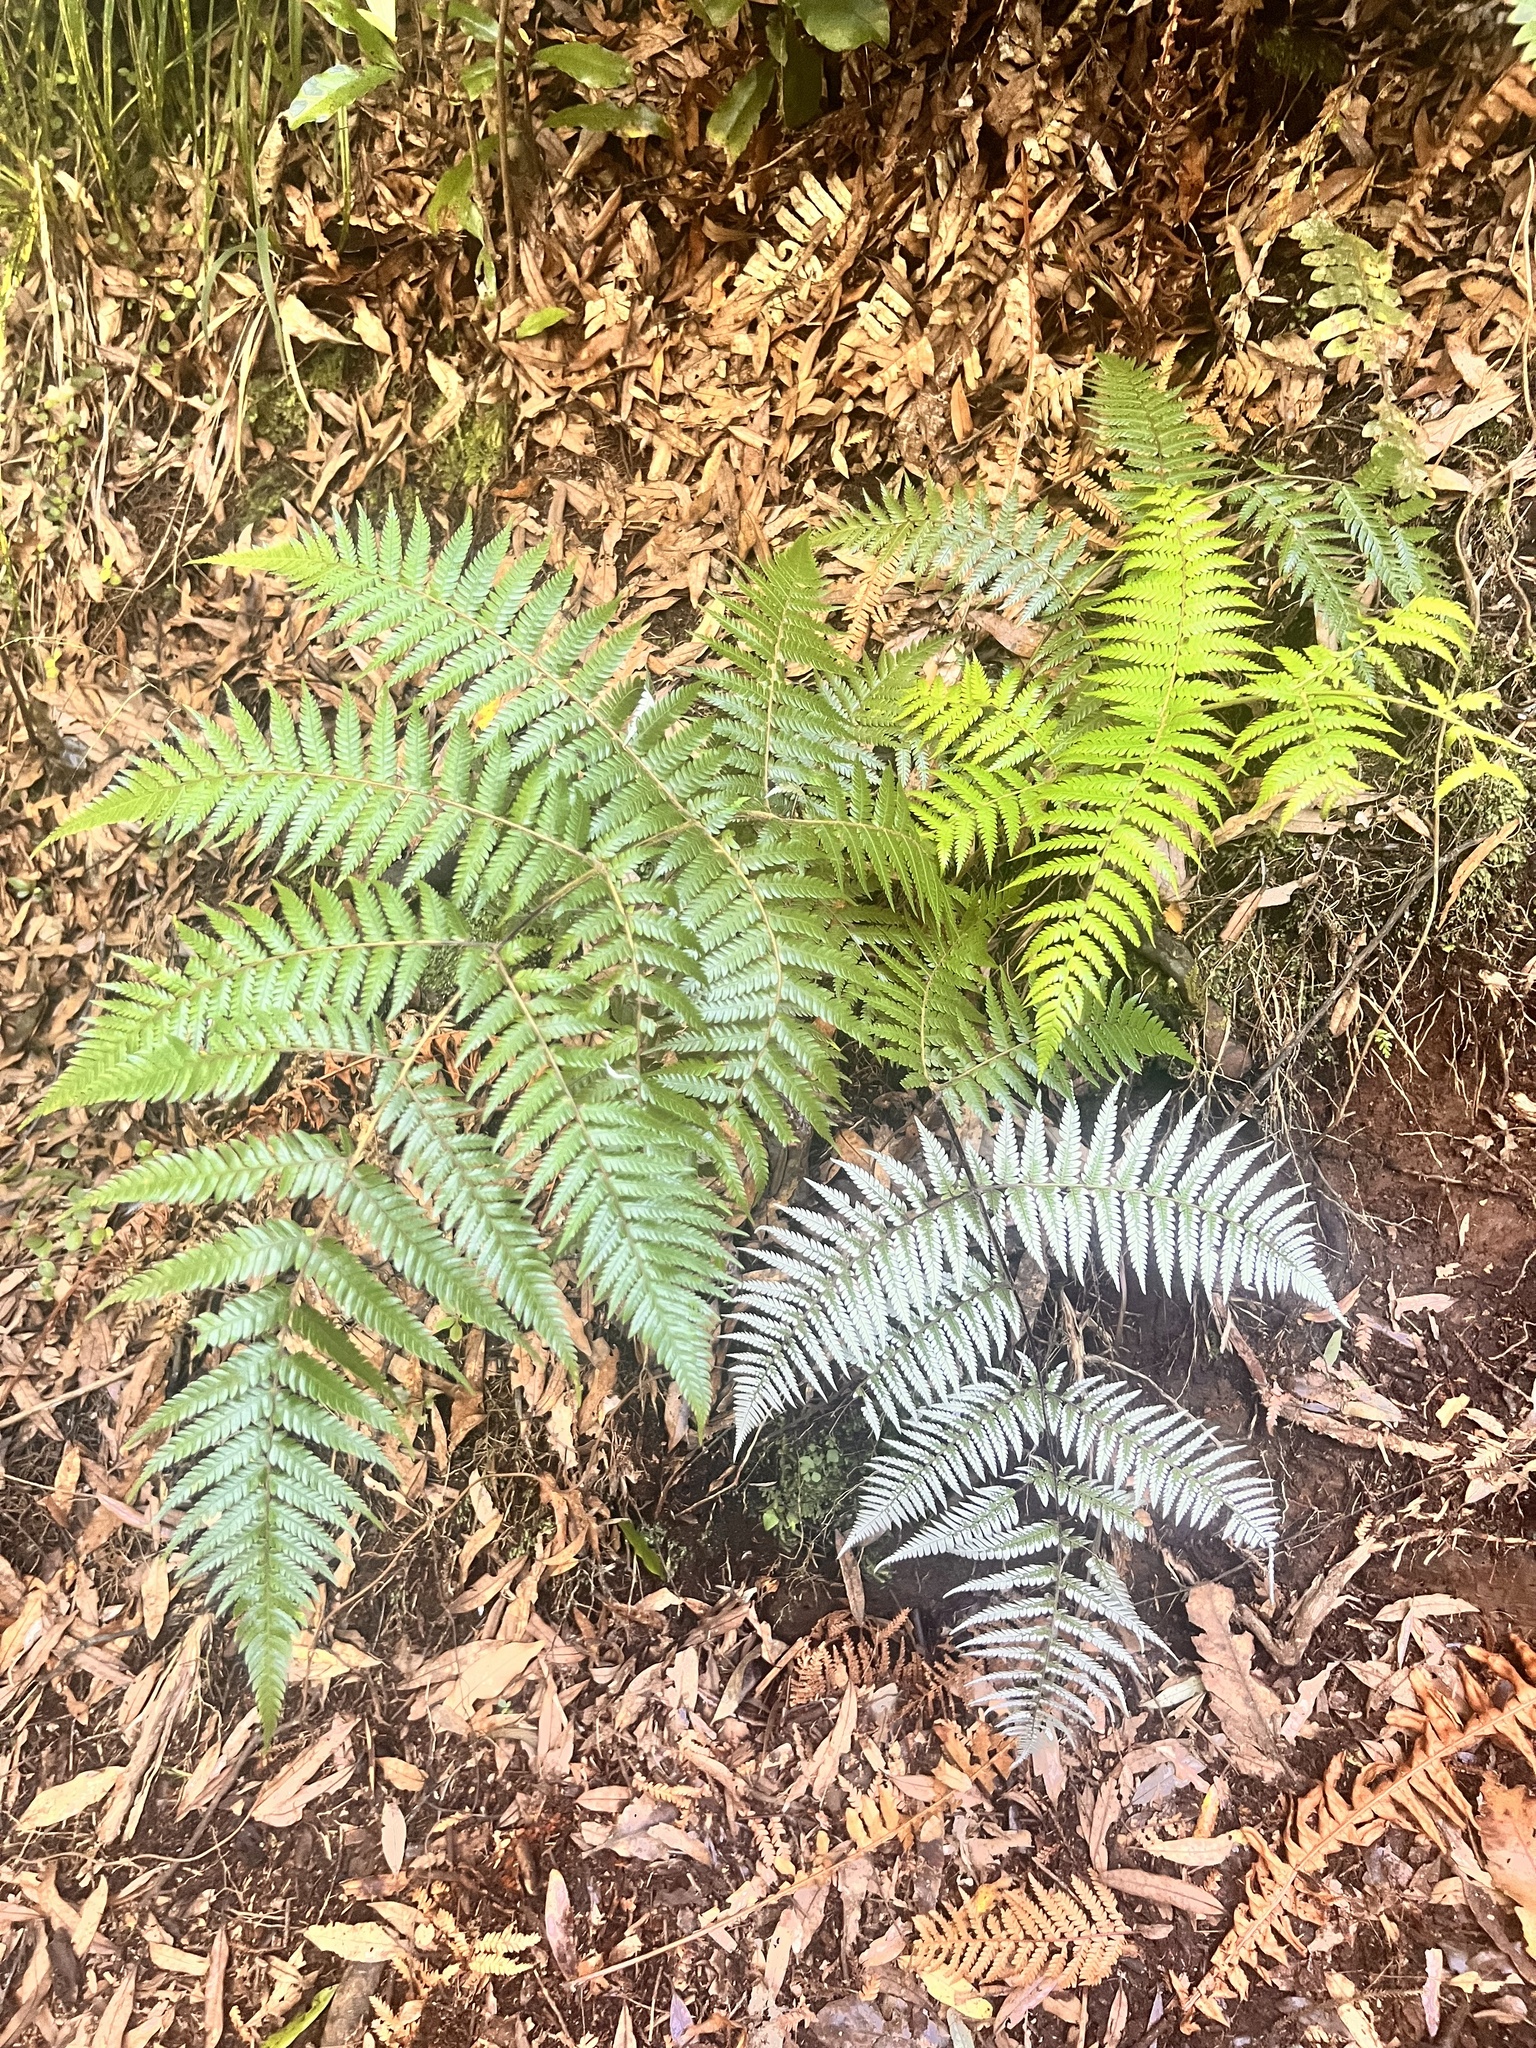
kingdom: Plantae
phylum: Tracheophyta
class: Polypodiopsida
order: Cyatheales
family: Cyatheaceae
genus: Alsophila
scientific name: Alsophila dealbata
